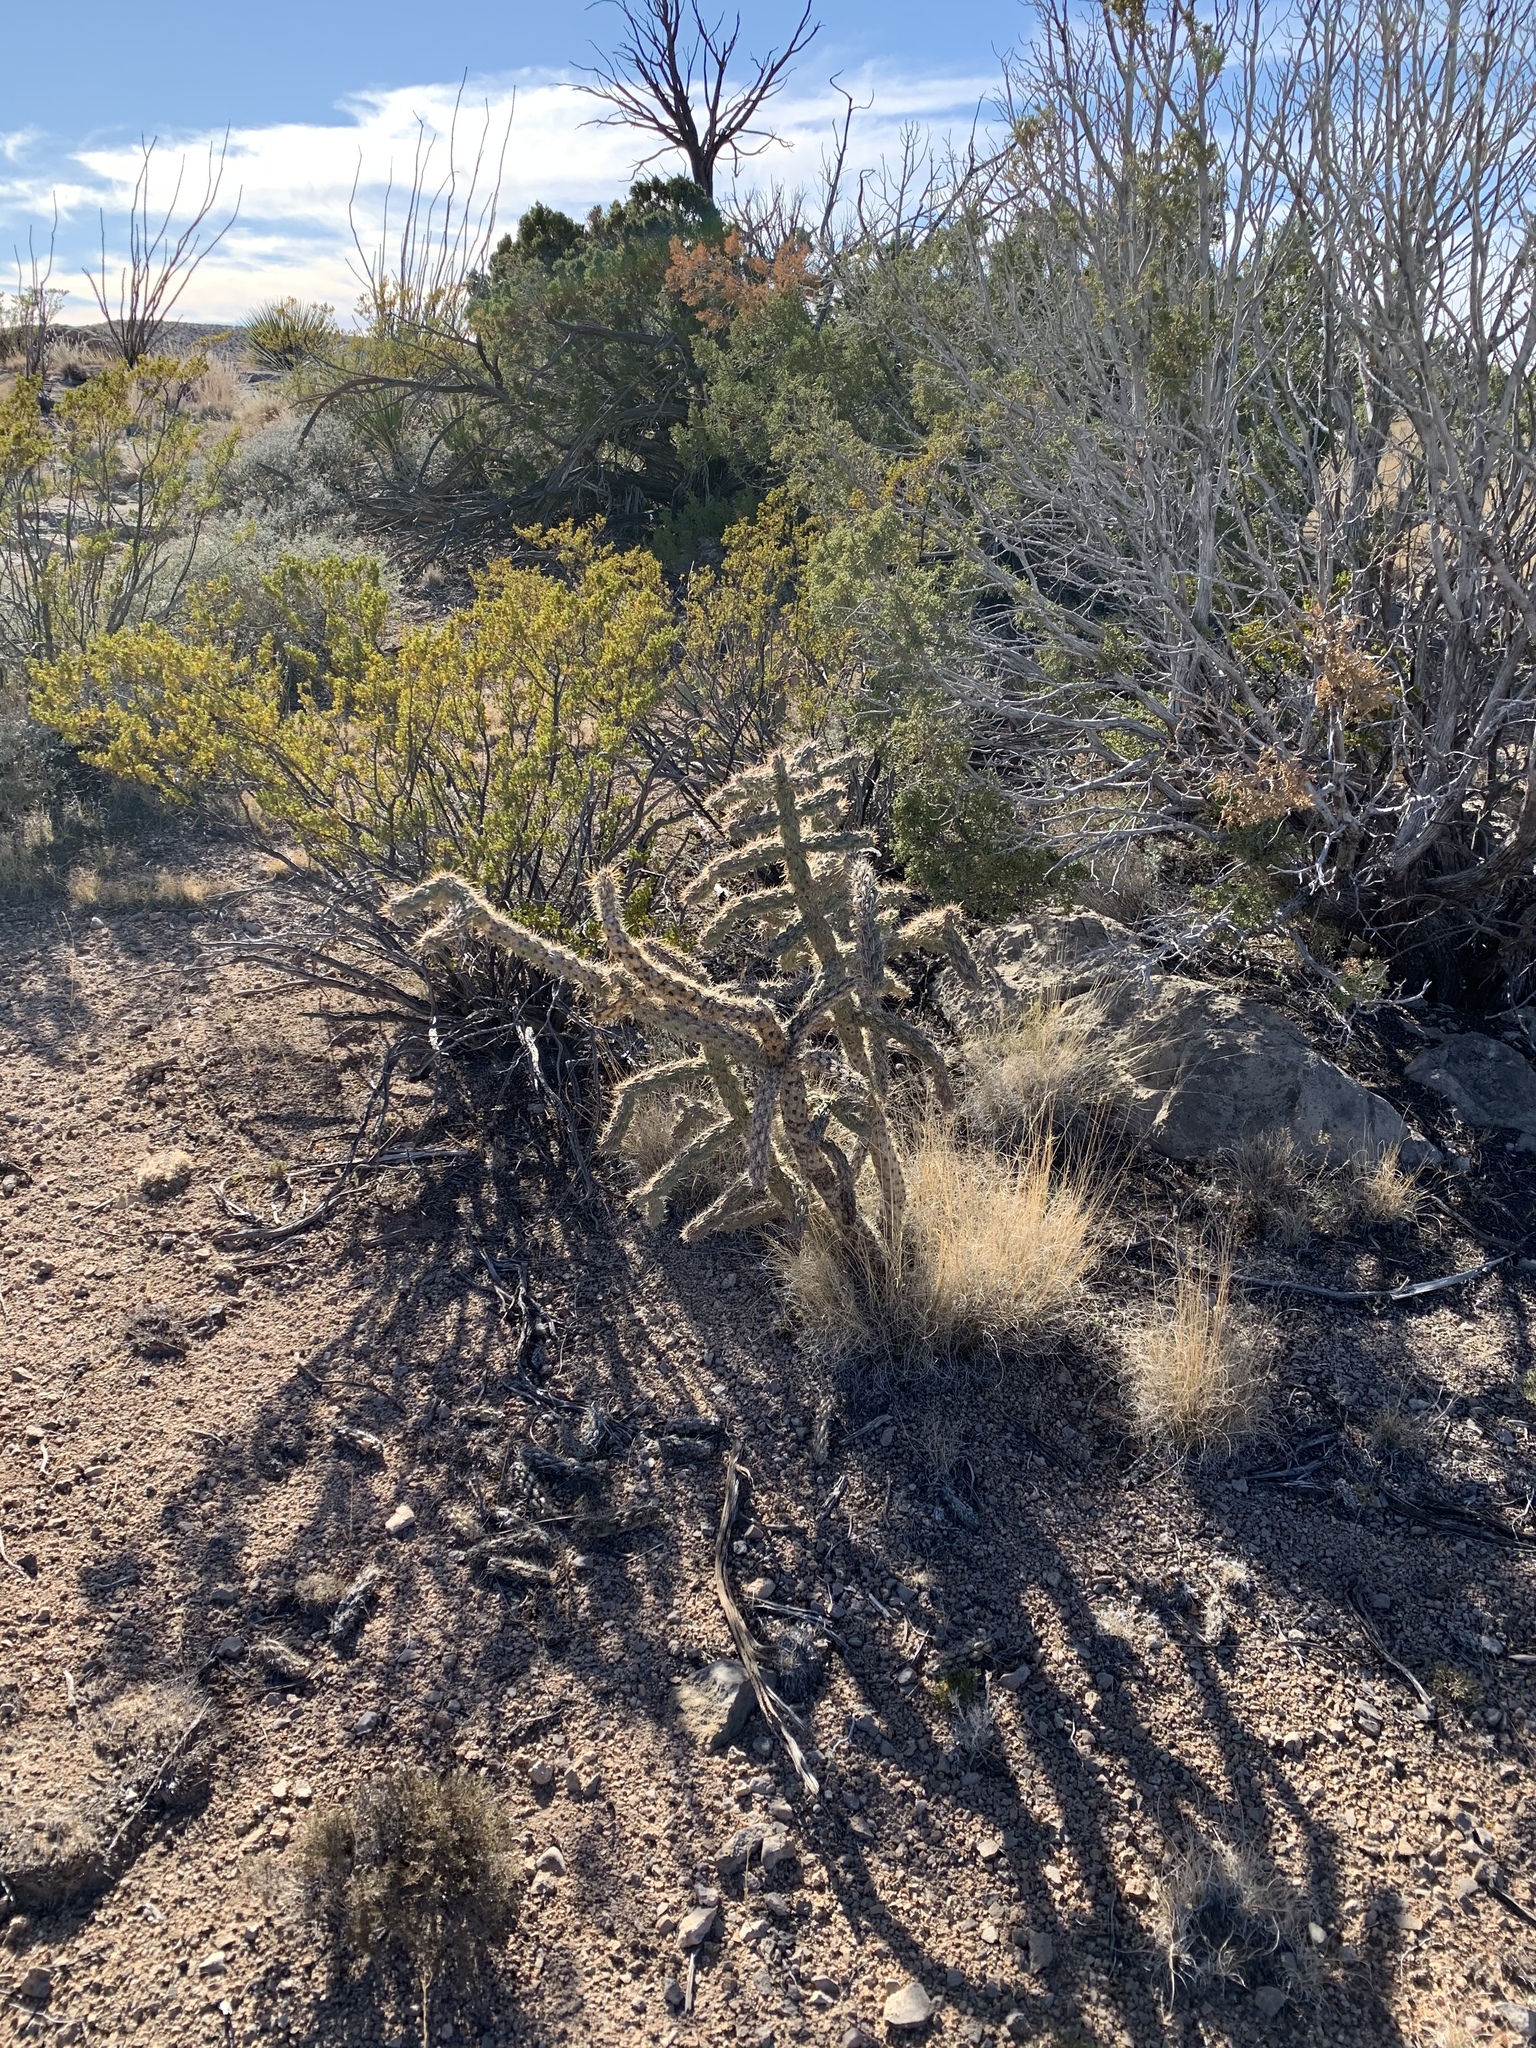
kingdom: Plantae
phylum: Tracheophyta
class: Magnoliopsida
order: Caryophyllales
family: Cactaceae
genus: Cylindropuntia
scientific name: Cylindropuntia imbricata
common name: Candelabrum cactus
